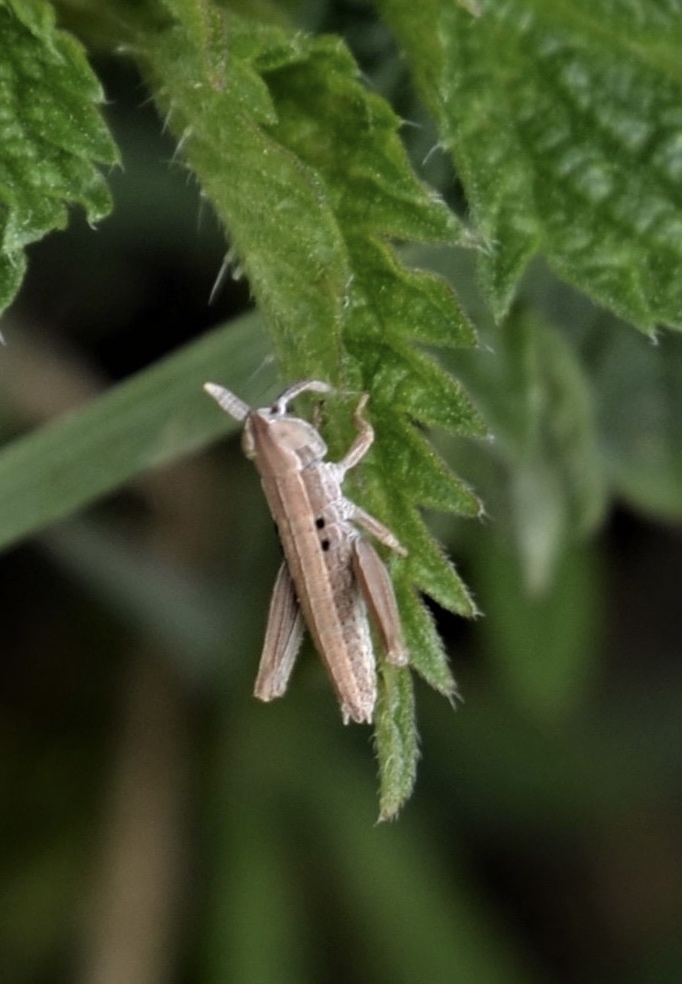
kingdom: Animalia
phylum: Arthropoda
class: Insecta
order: Orthoptera
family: Acrididae
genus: Euthystira
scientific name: Euthystira brachyptera
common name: Small gold grasshopper
